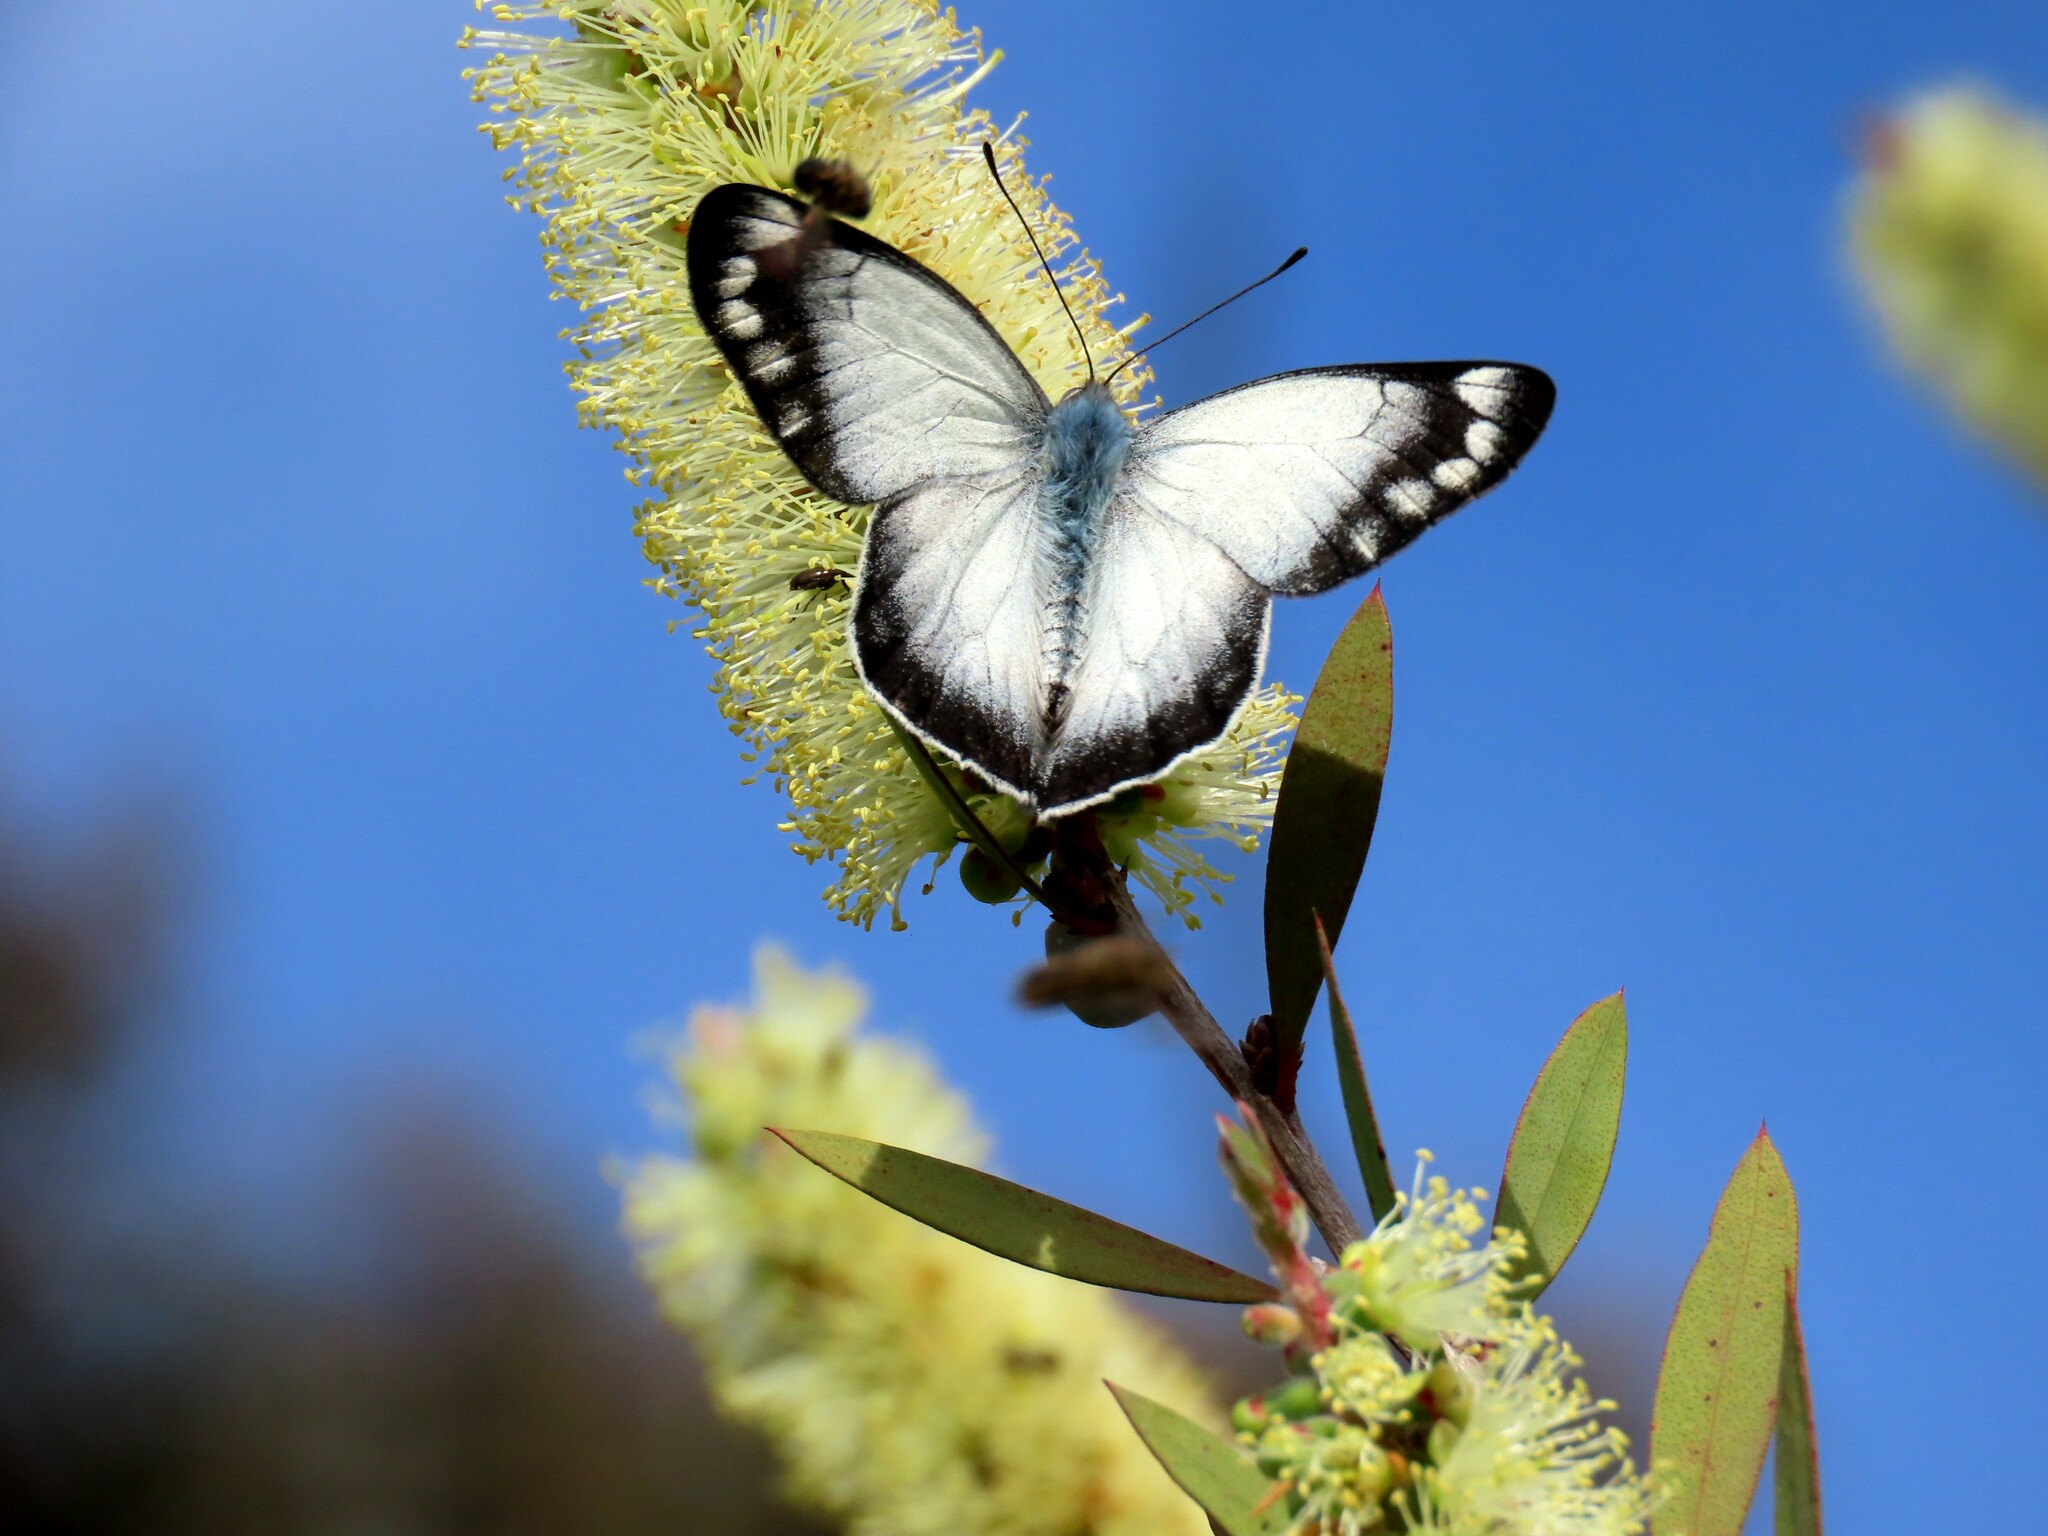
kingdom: Animalia
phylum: Arthropoda
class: Insecta
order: Lepidoptera
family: Pieridae
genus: Delias
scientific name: Delias harpalyce
